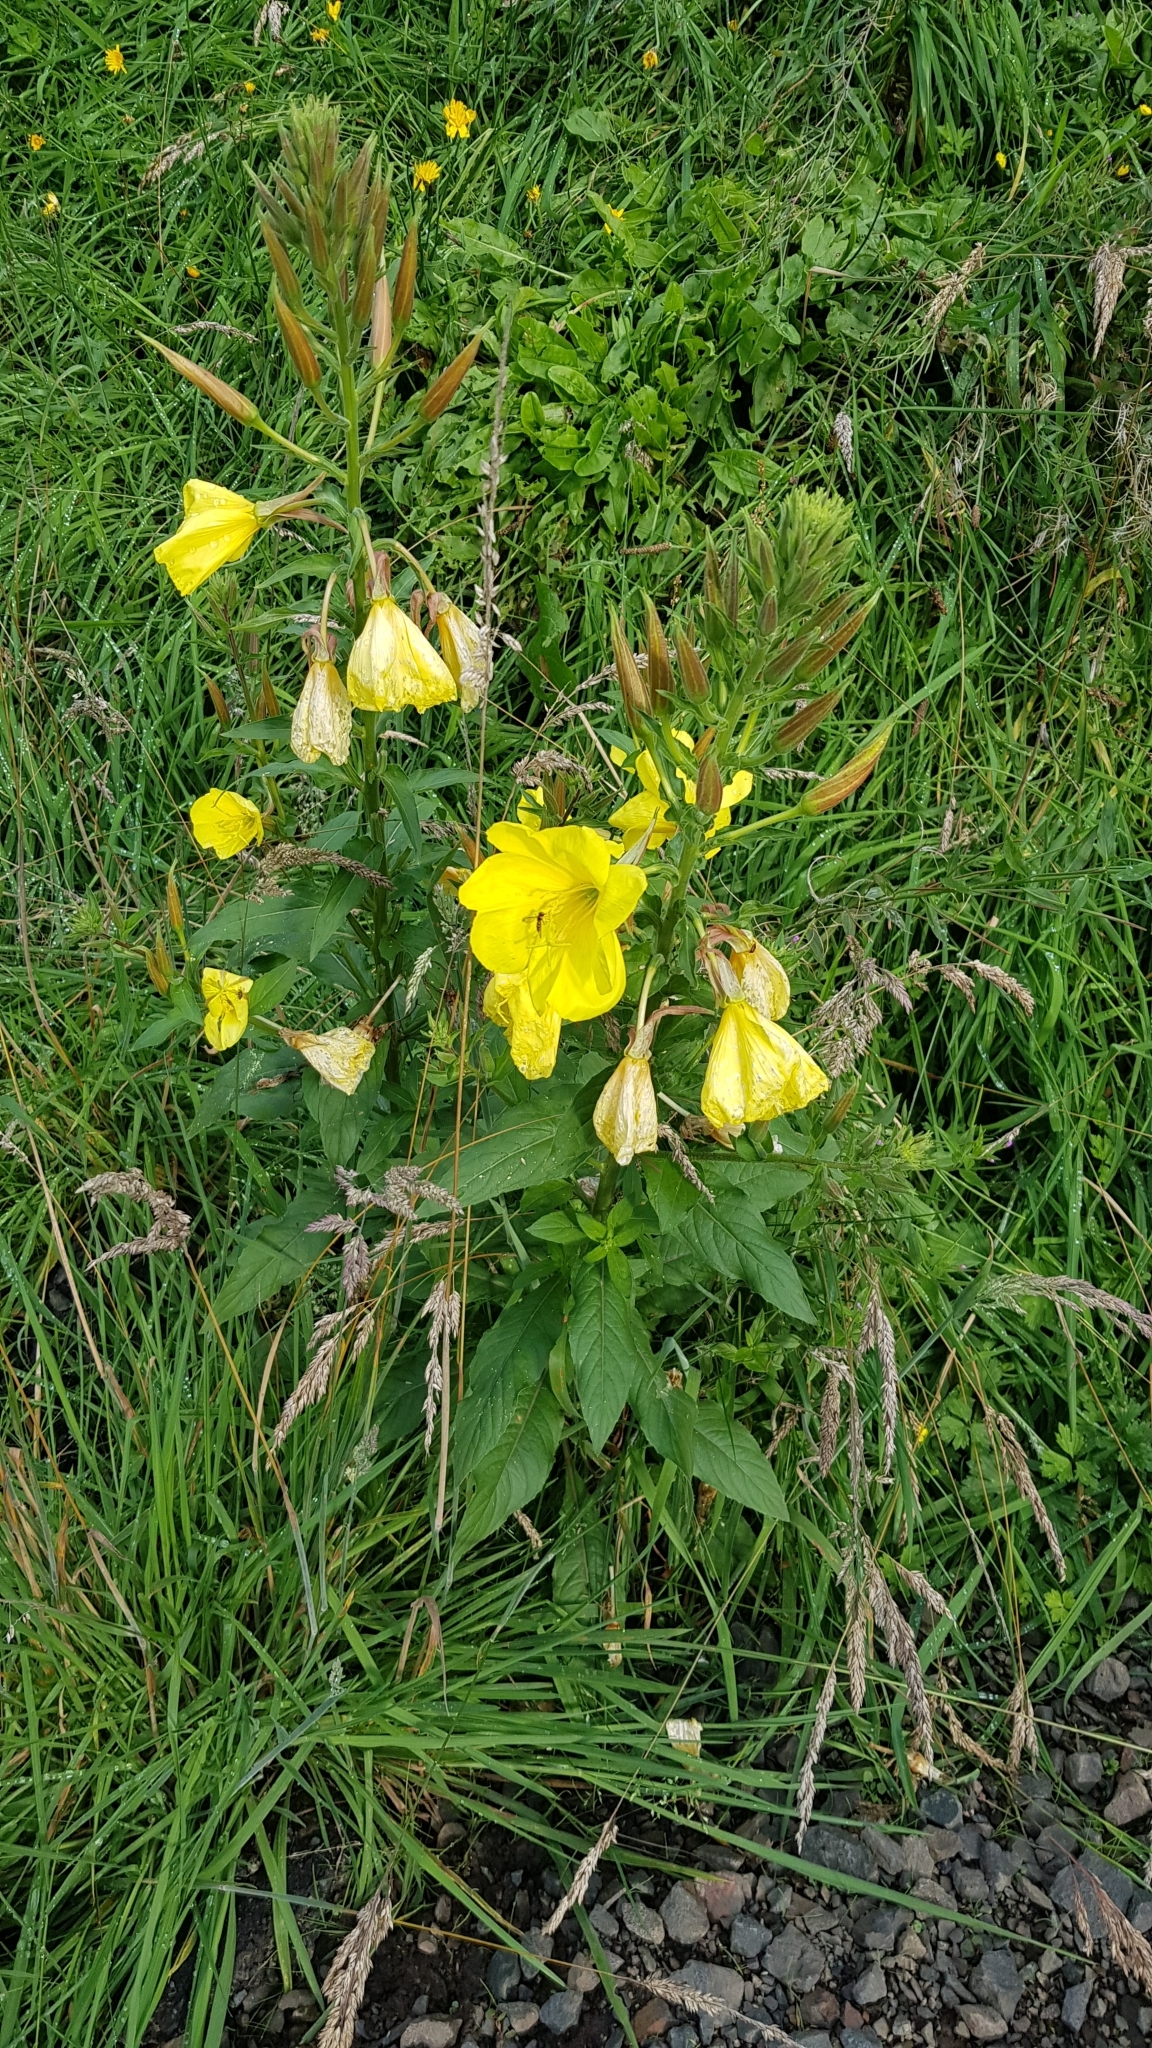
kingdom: Plantae
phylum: Tracheophyta
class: Magnoliopsida
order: Myrtales
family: Onagraceae
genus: Oenothera
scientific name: Oenothera glazioviana
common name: Large-flowered evening-primrose
